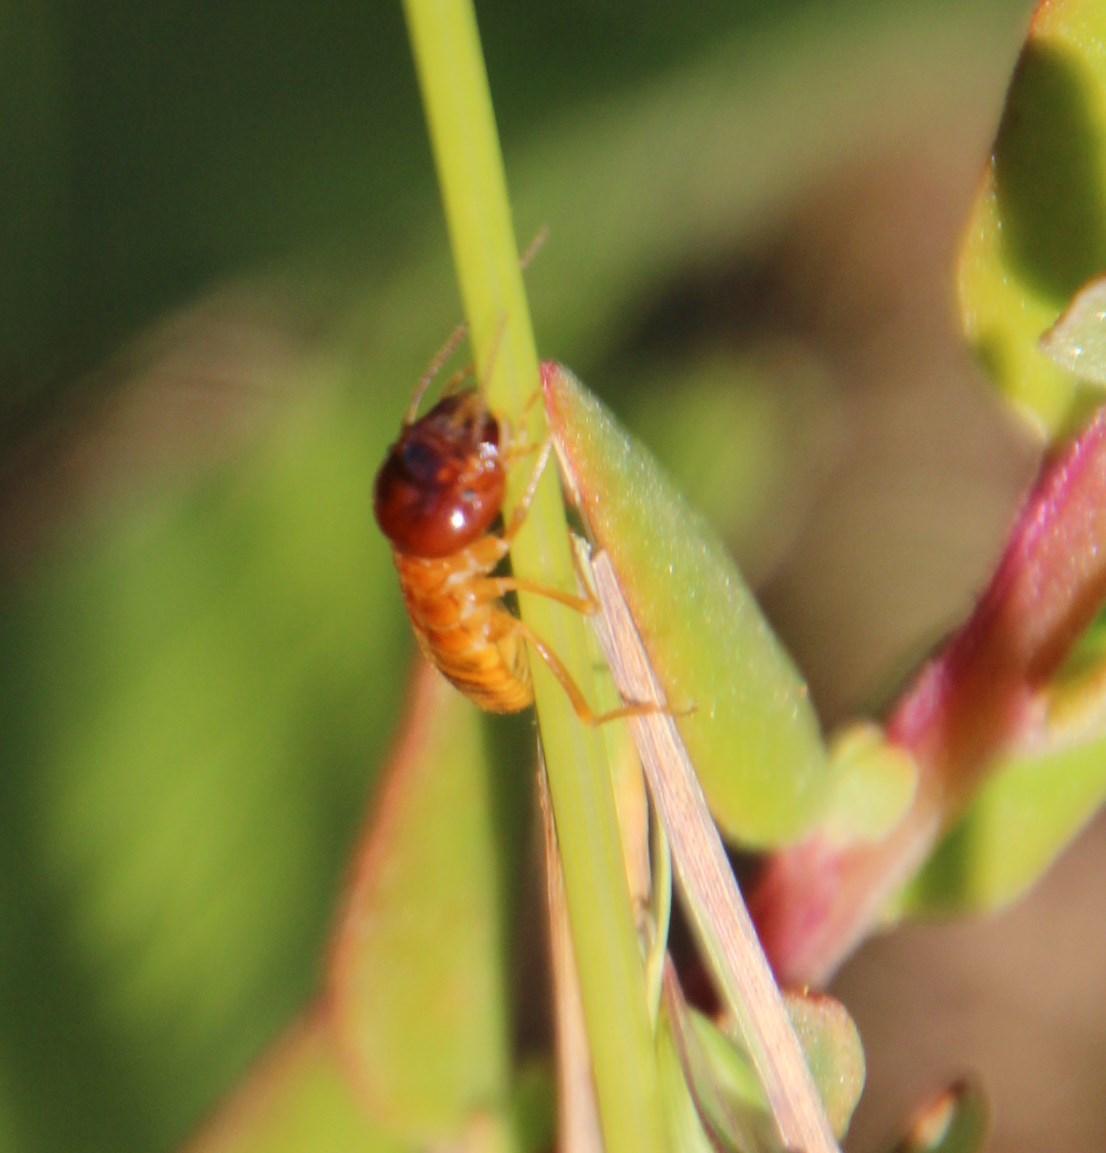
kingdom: Animalia
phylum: Arthropoda
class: Insecta
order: Blattodea
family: Hodotermitidae
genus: Microhodotermes
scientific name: Microhodotermes viator
